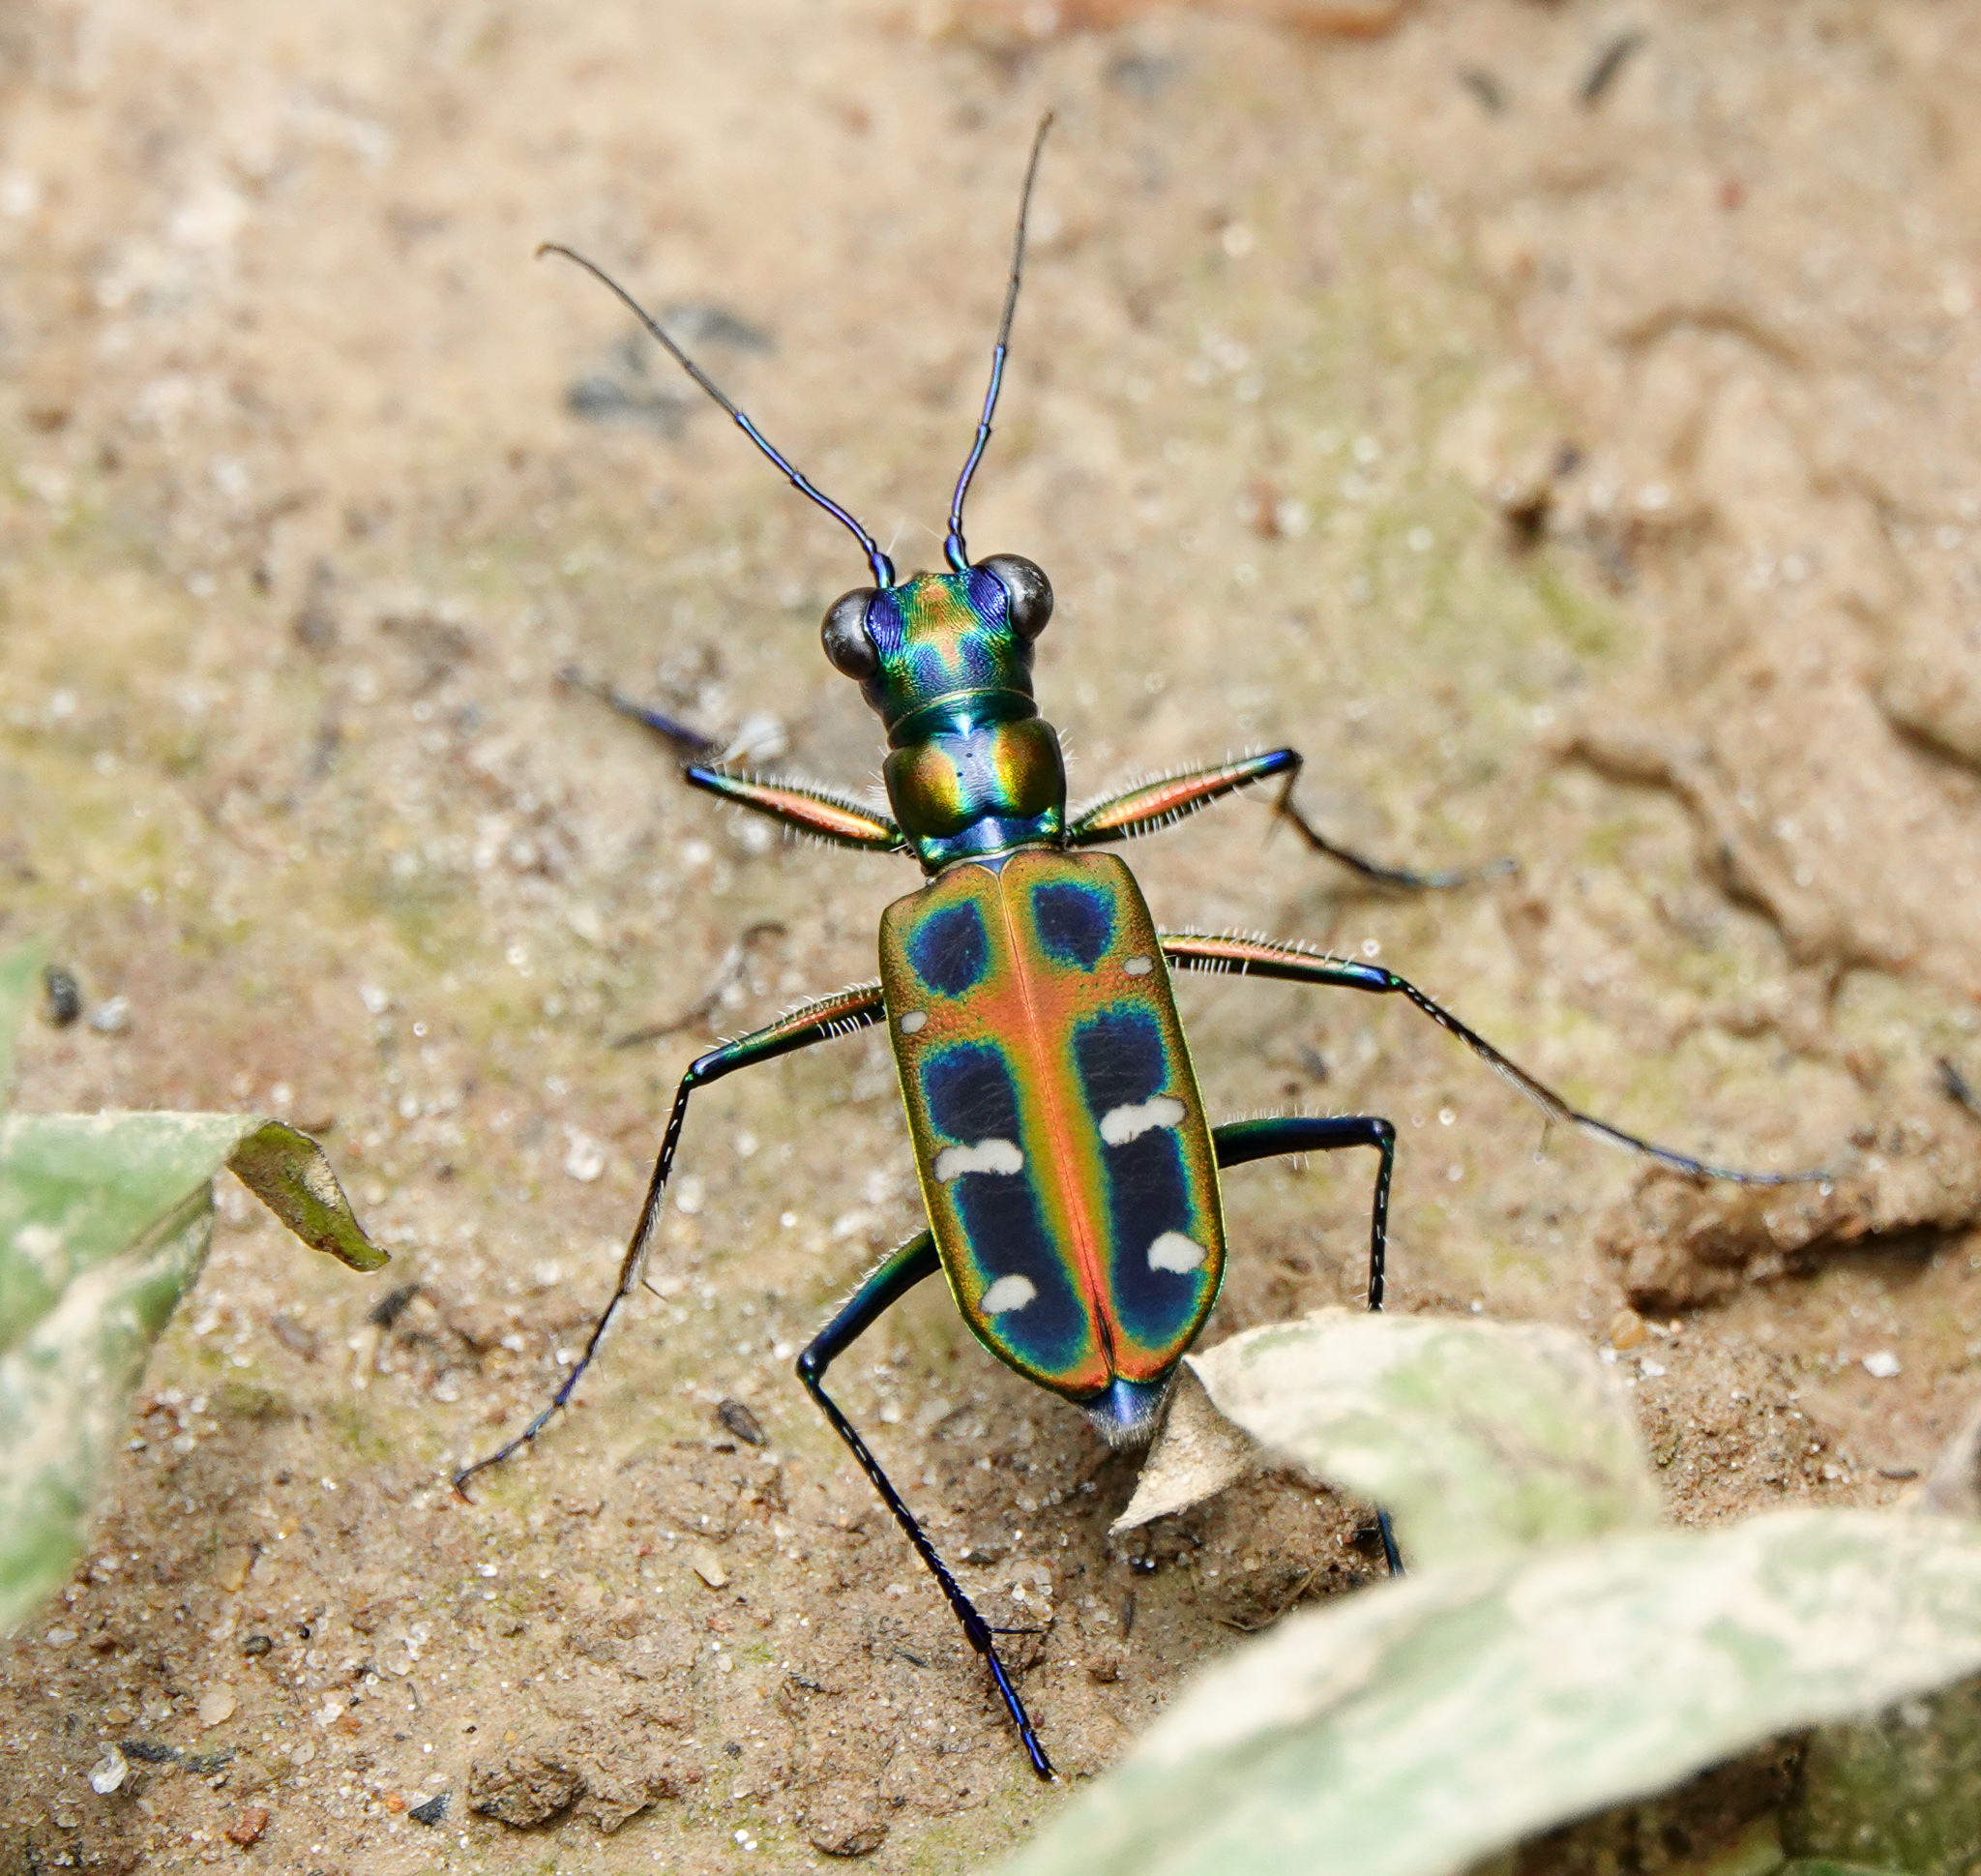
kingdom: Animalia
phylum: Arthropoda
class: Insecta
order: Coleoptera
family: Carabidae
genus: Cicindela
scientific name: Cicindela barmanica
